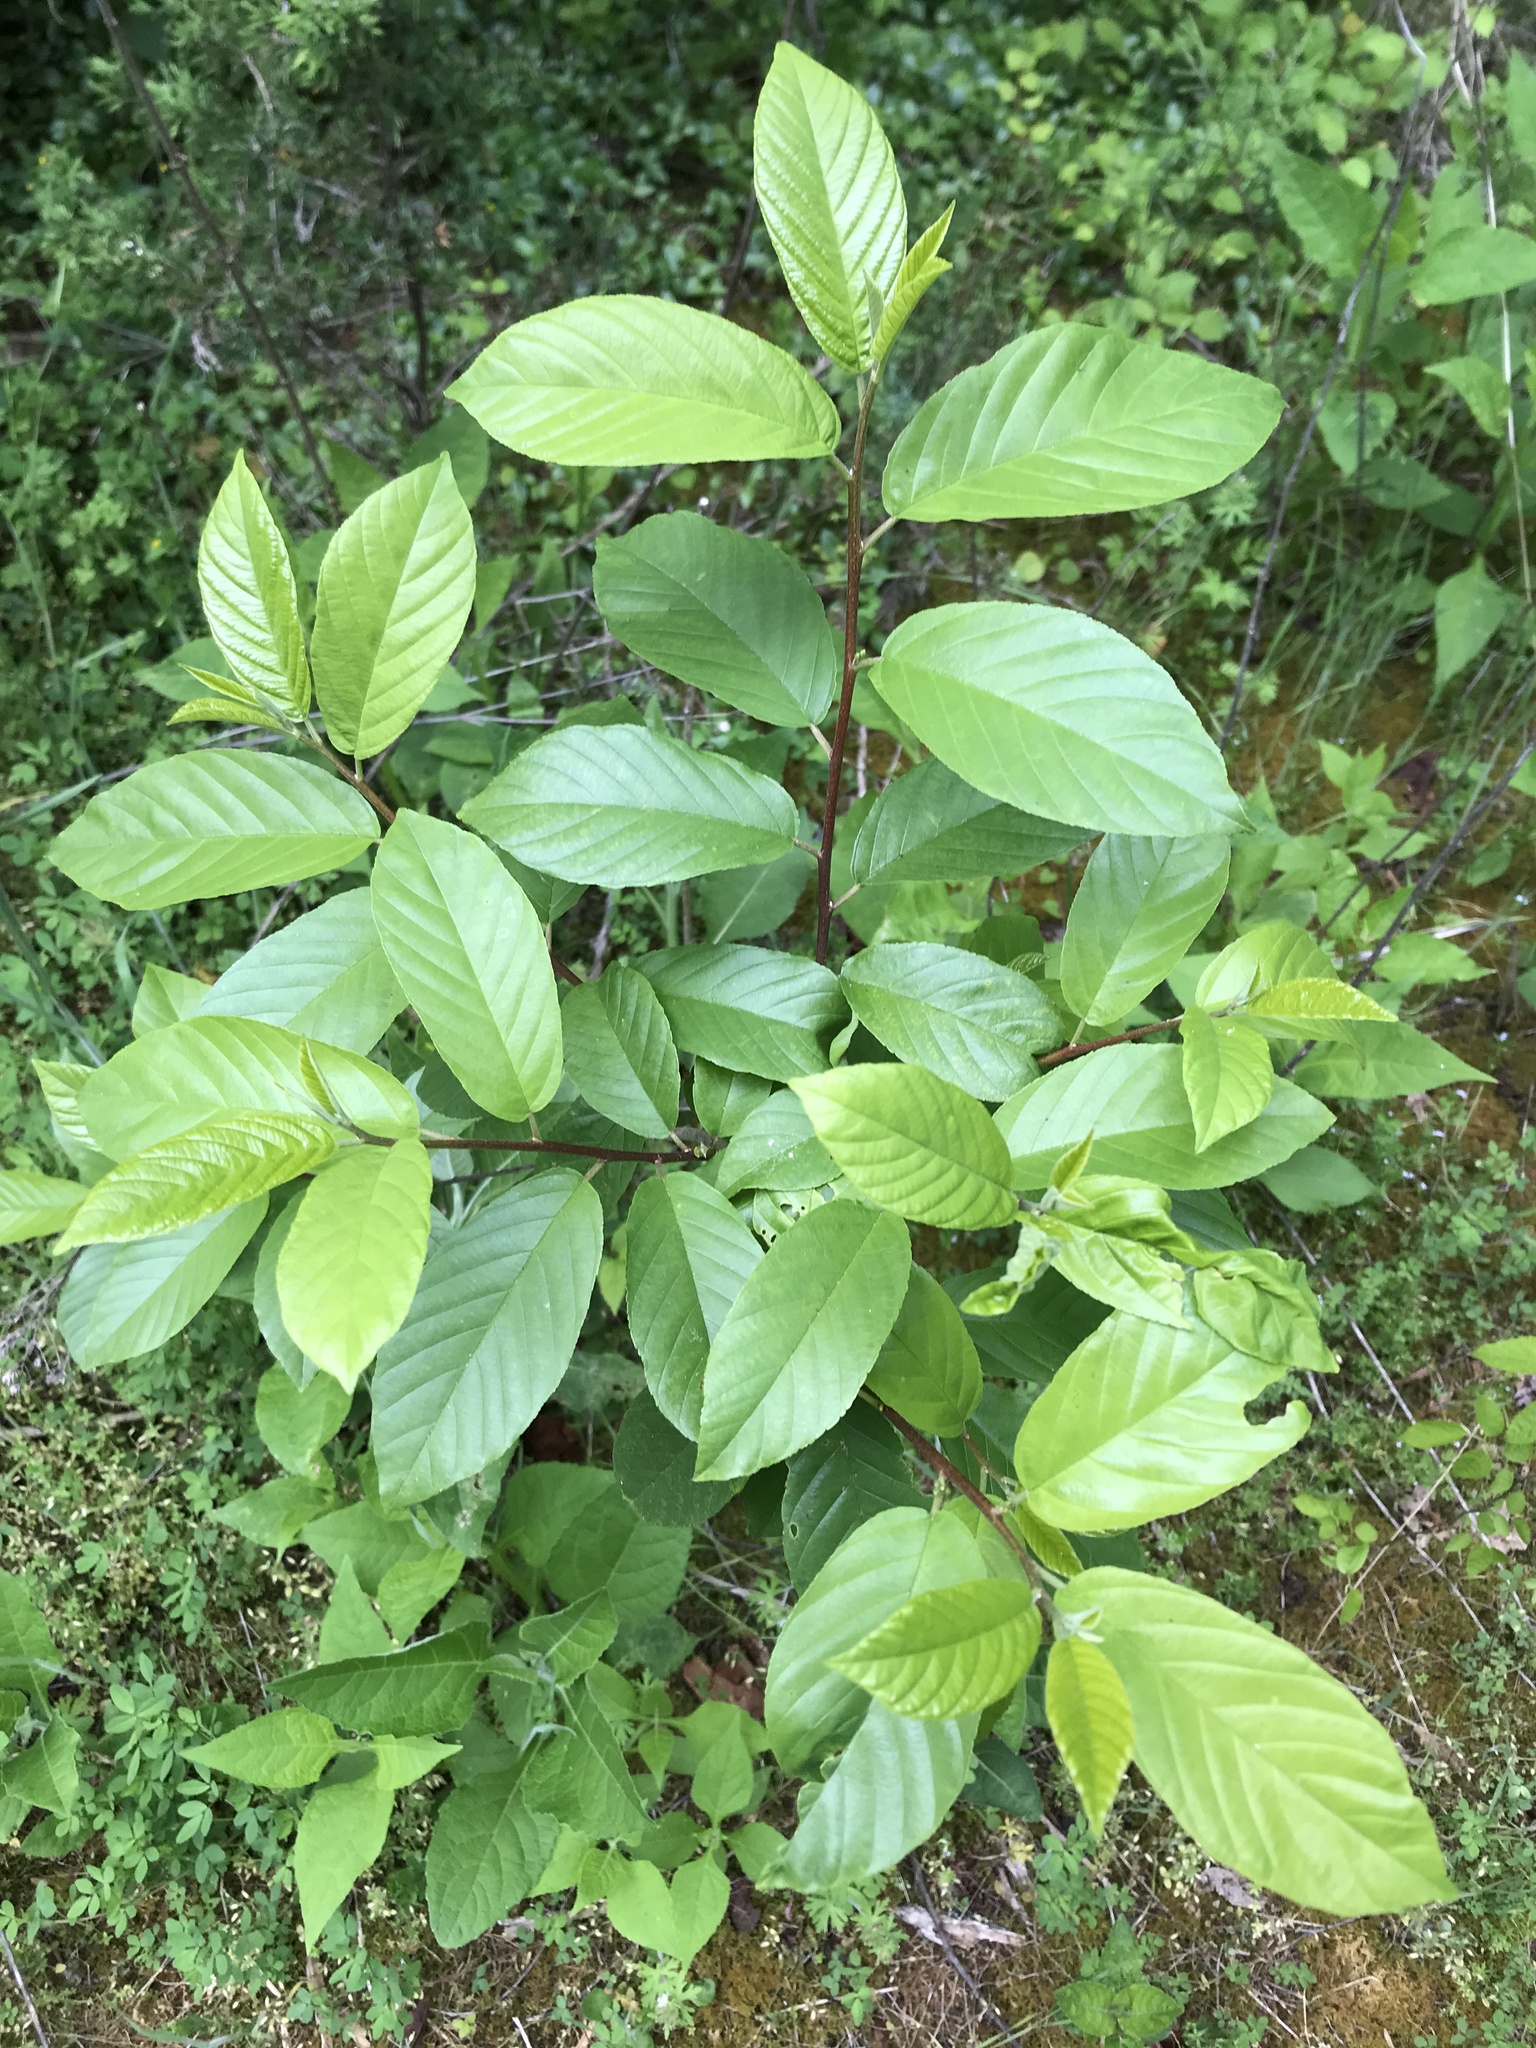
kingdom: Plantae
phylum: Tracheophyta
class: Magnoliopsida
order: Rosales
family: Rhamnaceae
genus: Frangula
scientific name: Frangula caroliniana
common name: Carolina buckthorn
